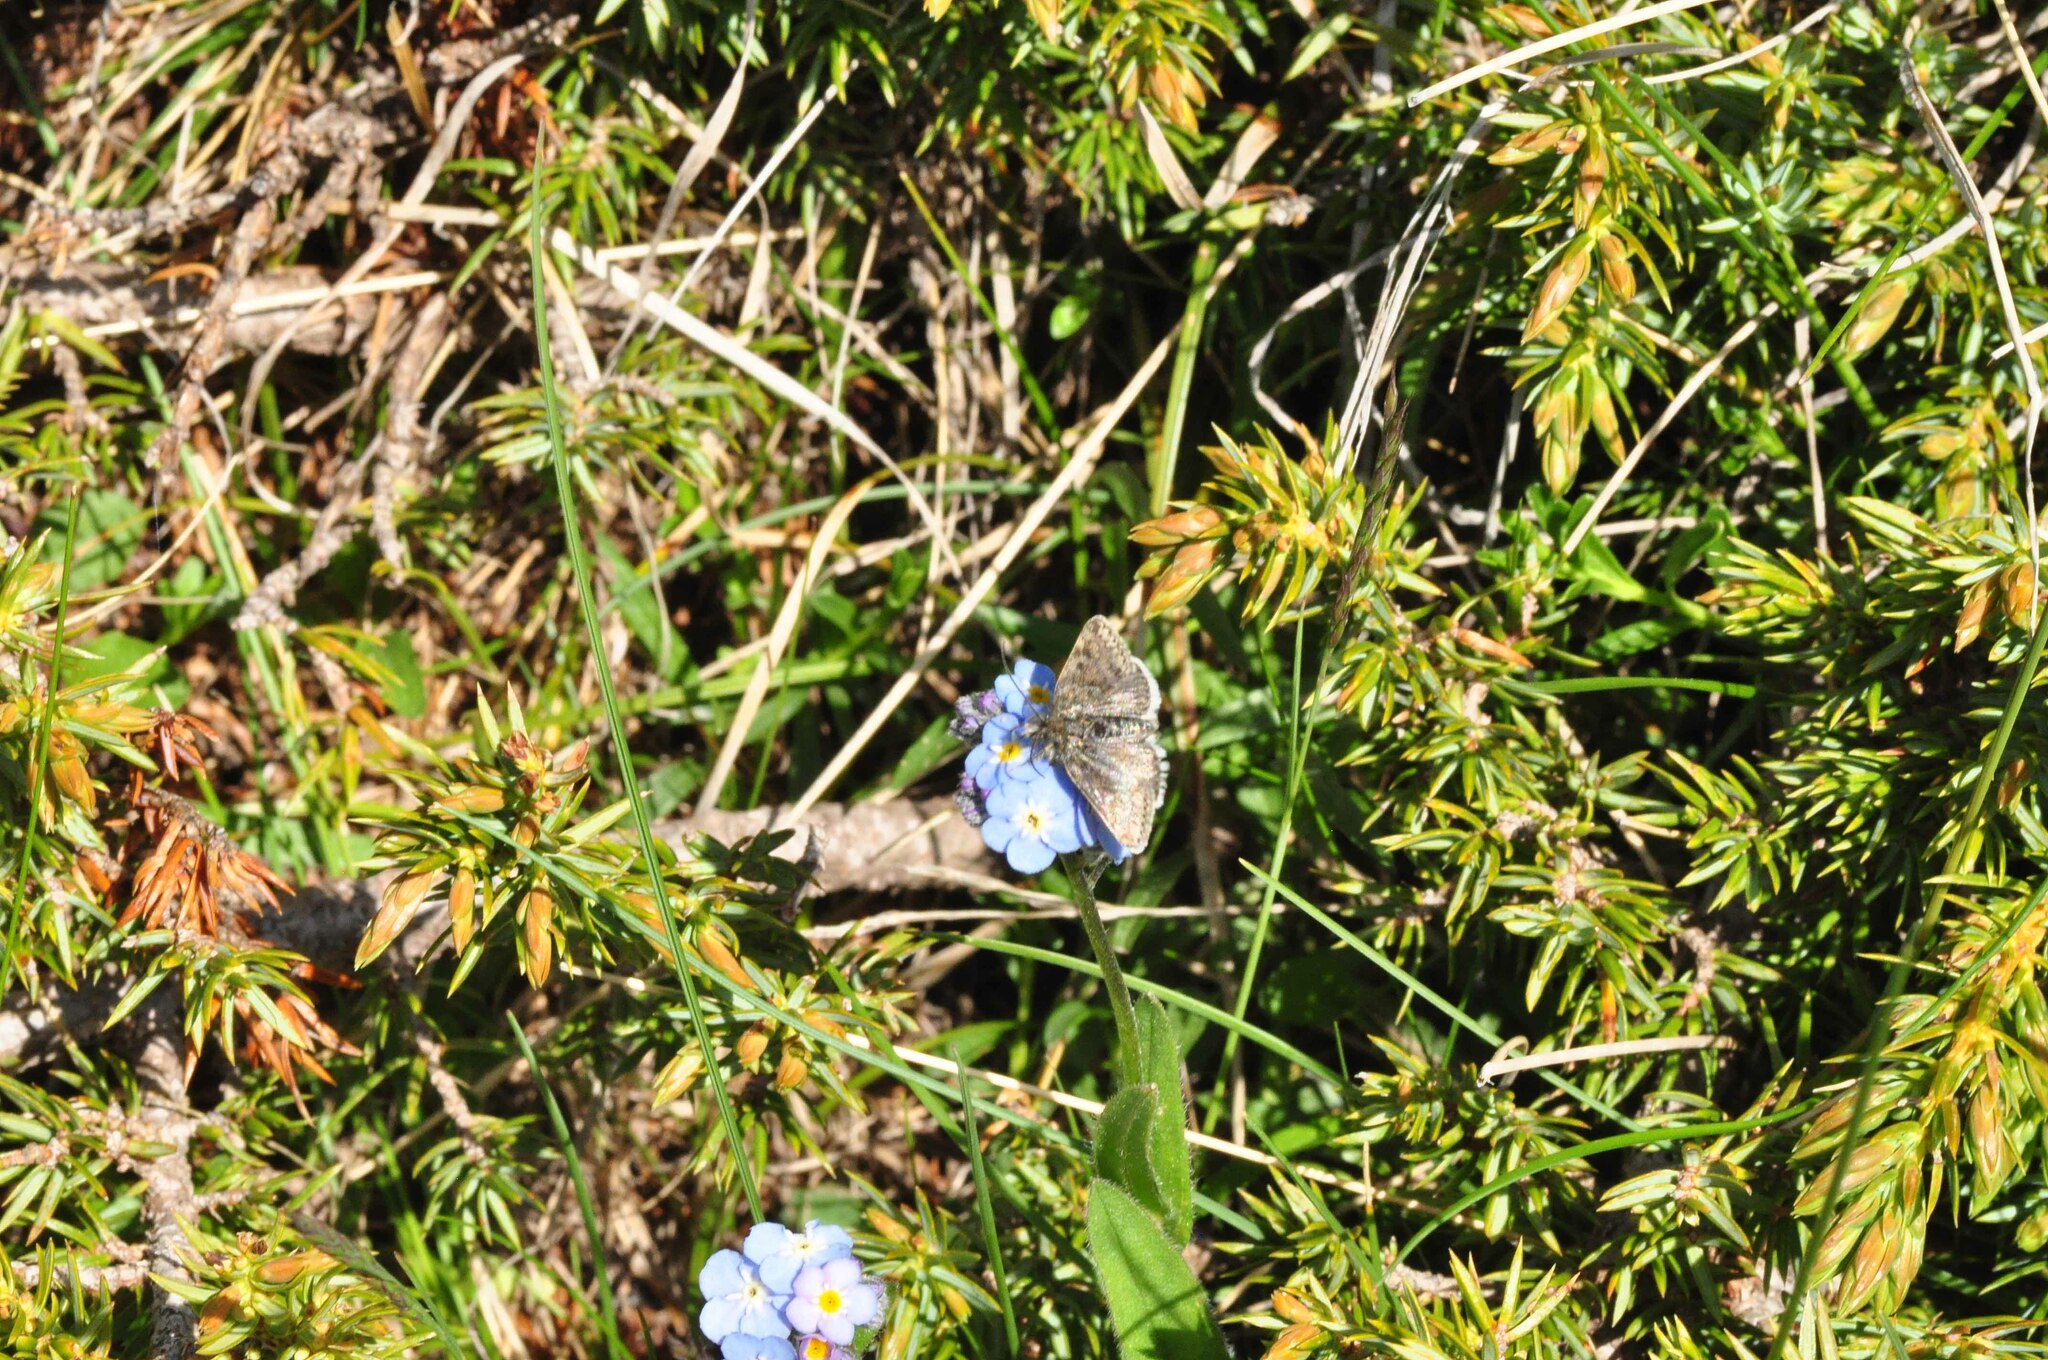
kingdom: Animalia
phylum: Arthropoda
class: Insecta
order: Lepidoptera
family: Crambidae
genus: Metaxmeste
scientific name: Metaxmeste phrygialis
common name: Black mountain pearl
